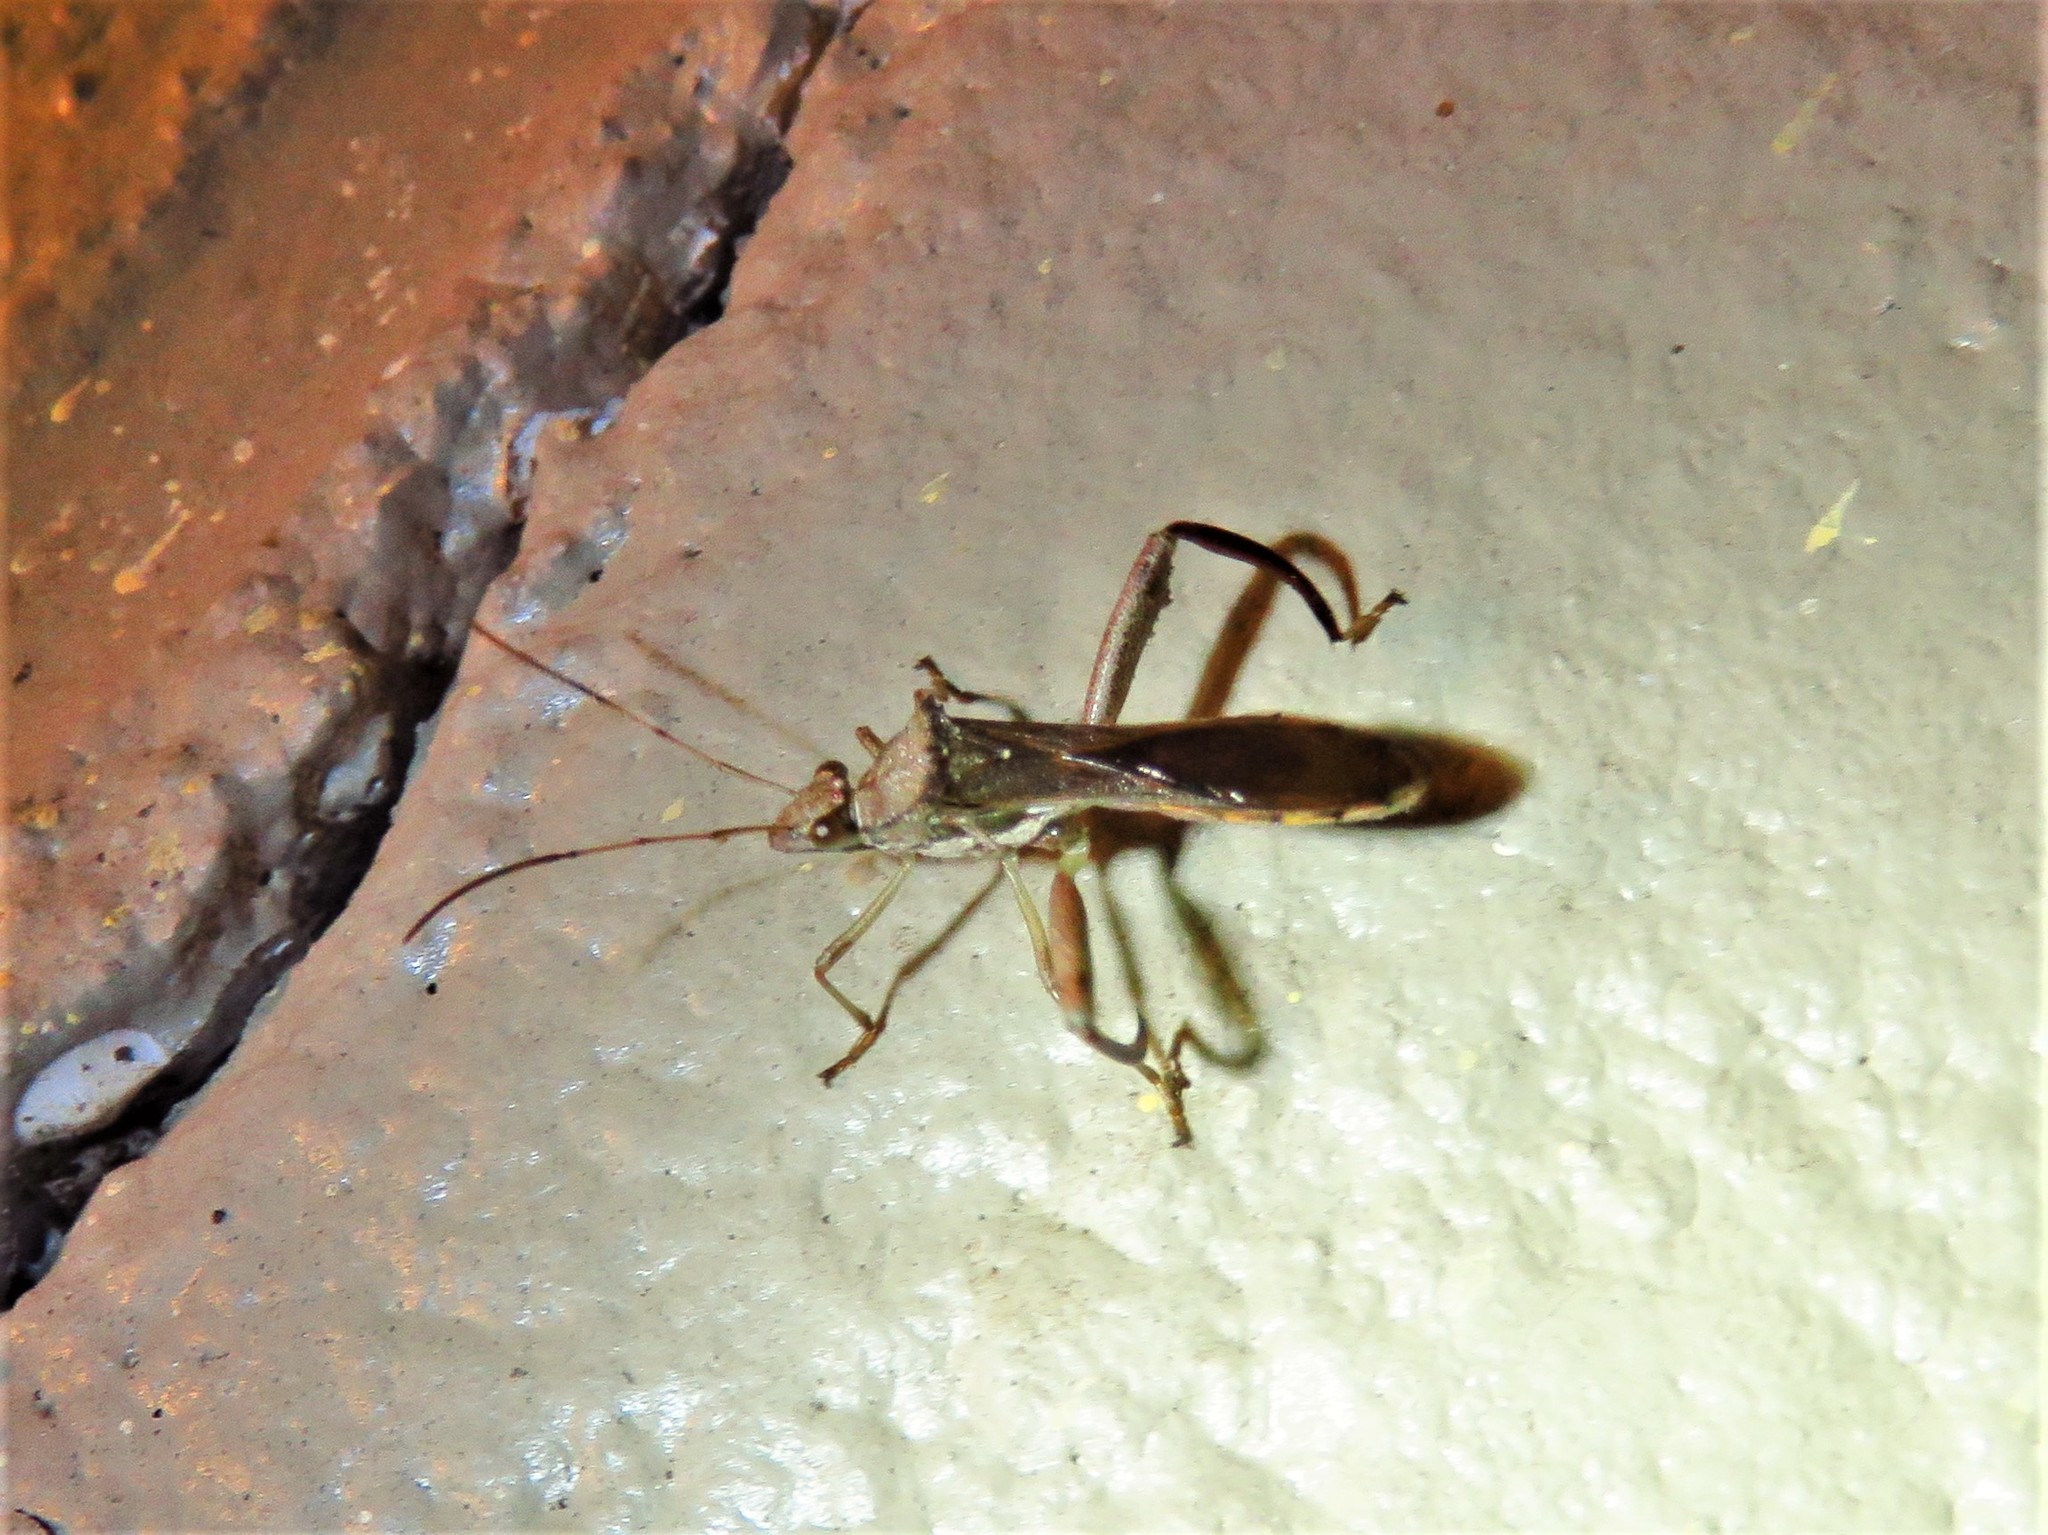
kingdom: Animalia
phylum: Arthropoda
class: Insecta
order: Hemiptera
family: Alydidae
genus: Hyalymenus
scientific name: Hyalymenus tarsatus
